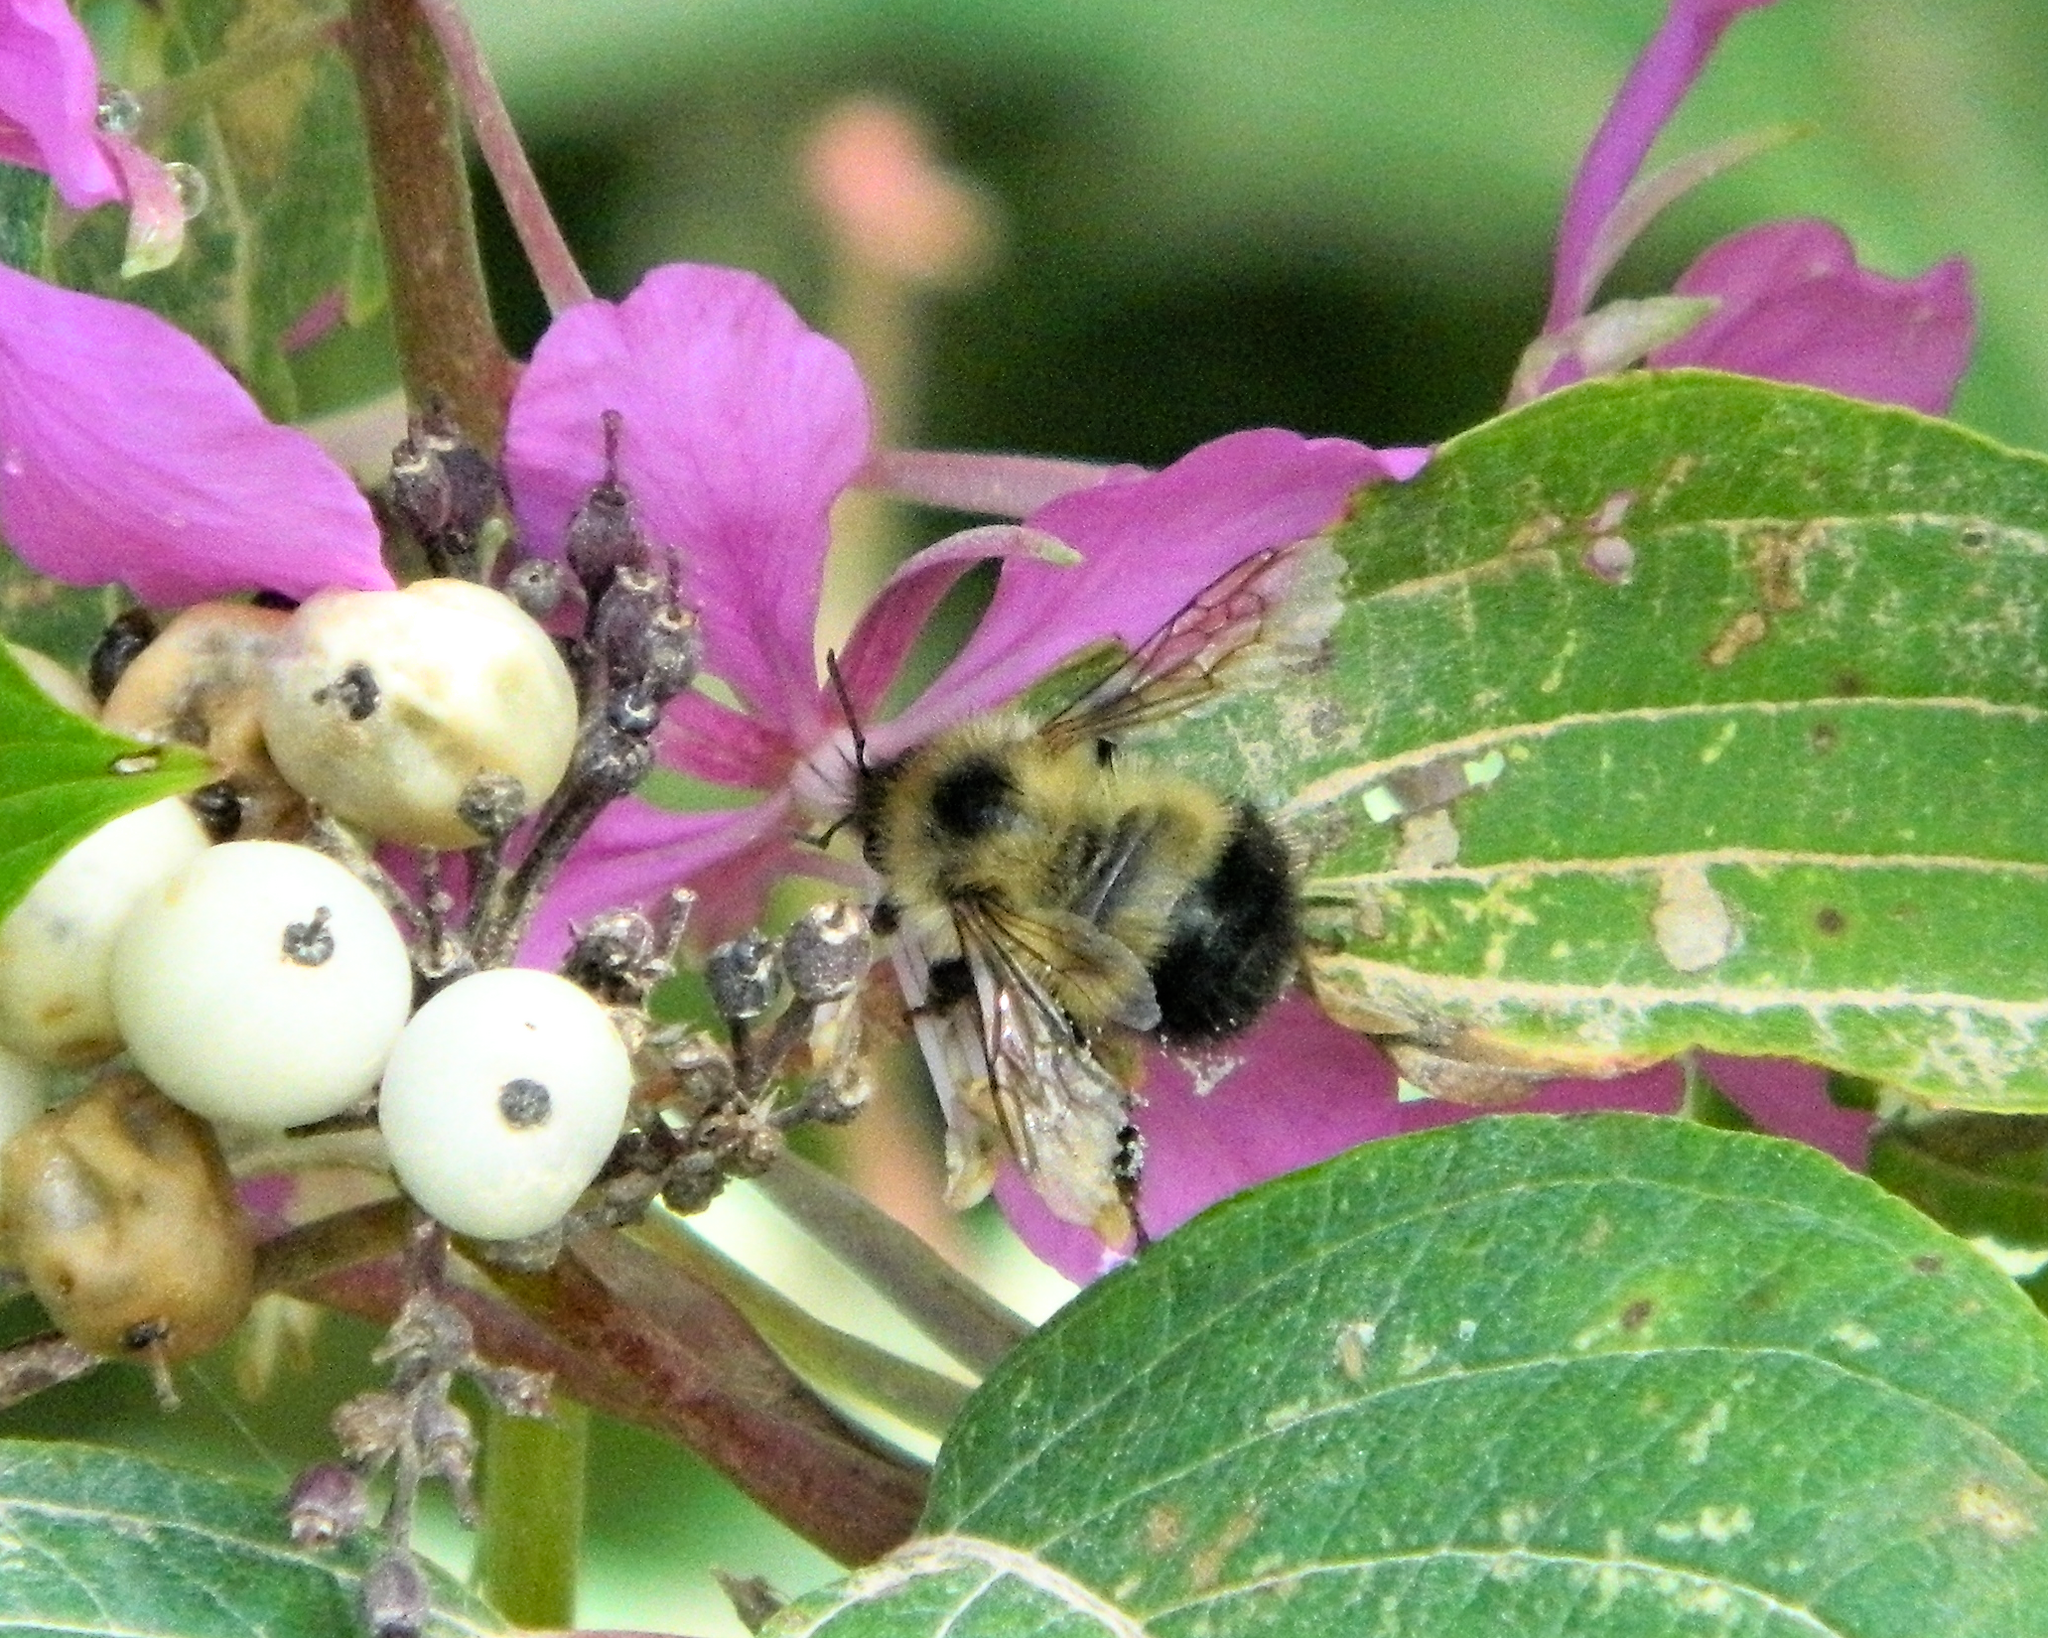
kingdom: Animalia
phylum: Arthropoda
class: Insecta
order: Hymenoptera
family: Apidae
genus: Pyrobombus
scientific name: Pyrobombus
